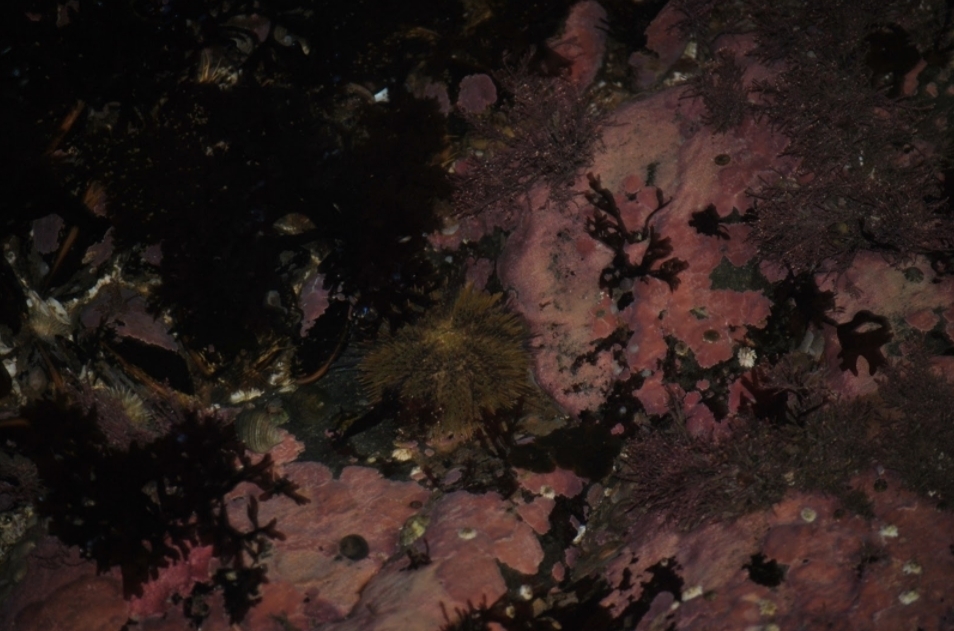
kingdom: Animalia
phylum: Echinodermata
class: Echinoidea
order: Camarodonta
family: Strongylocentrotidae
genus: Strongylocentrotus
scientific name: Strongylocentrotus droebachiensis
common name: Northern sea urchin
